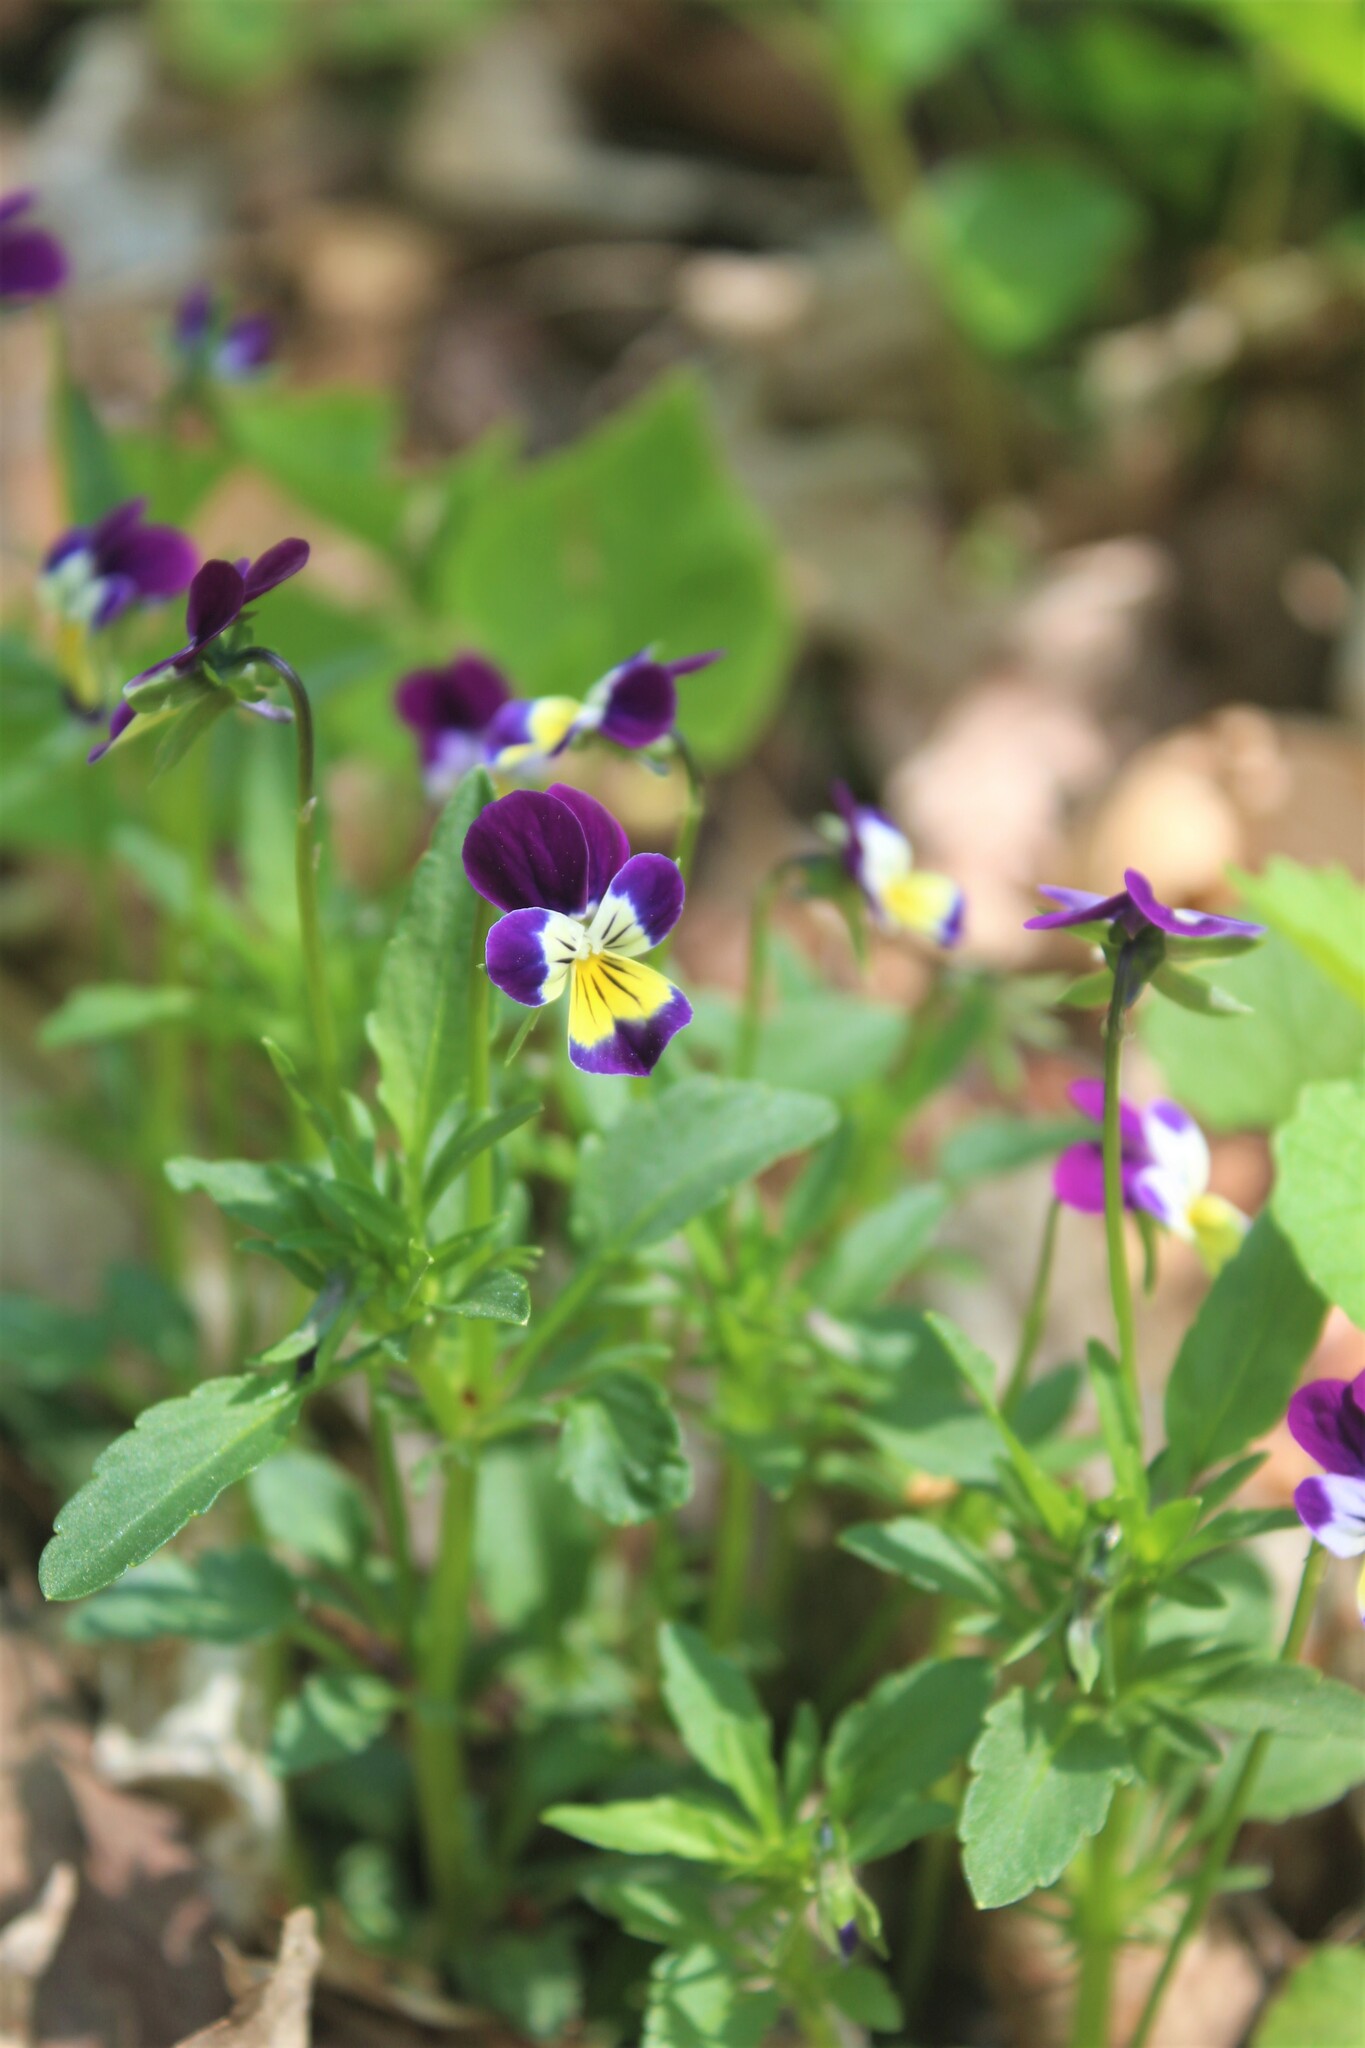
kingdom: Plantae
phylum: Tracheophyta
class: Magnoliopsida
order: Malpighiales
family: Violaceae
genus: Viola
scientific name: Viola williamsii
